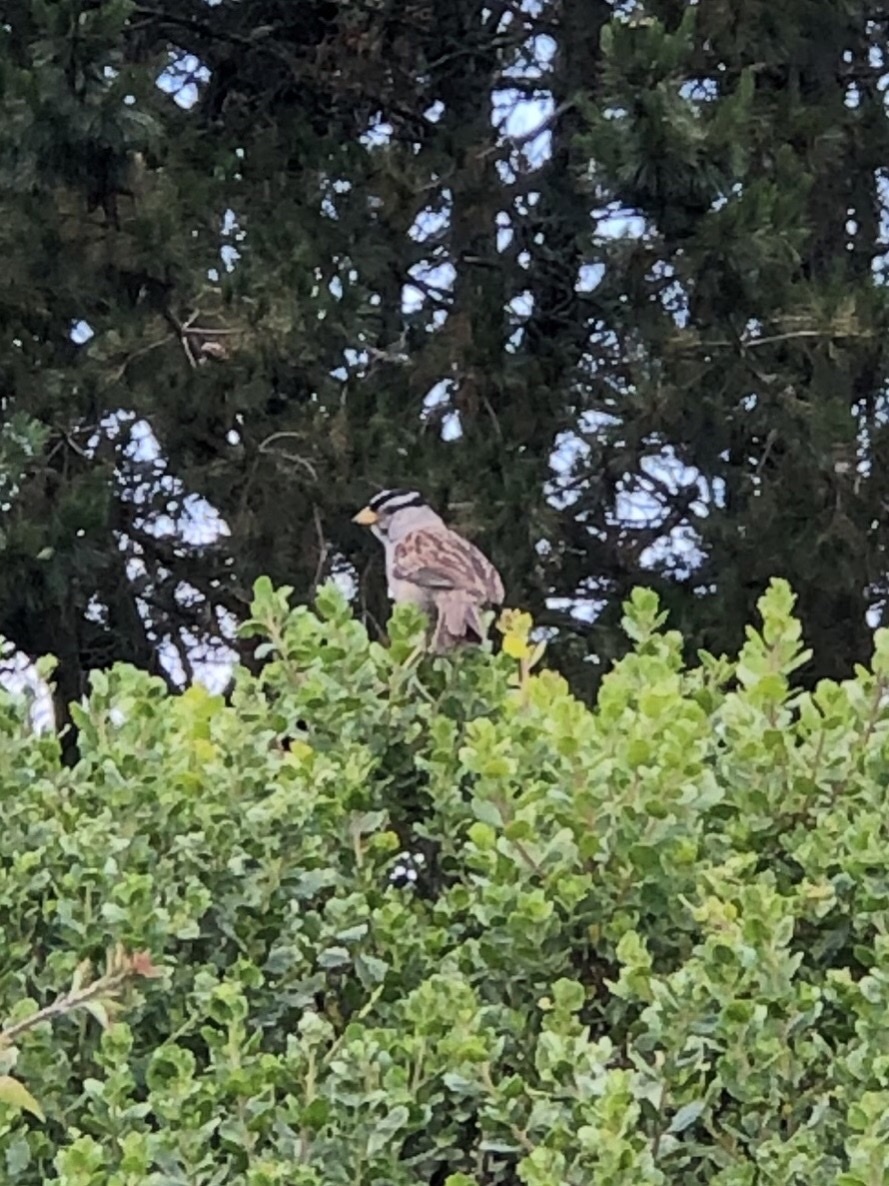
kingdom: Animalia
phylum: Chordata
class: Aves
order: Passeriformes
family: Passerellidae
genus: Zonotrichia
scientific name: Zonotrichia leucophrys
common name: White-crowned sparrow
